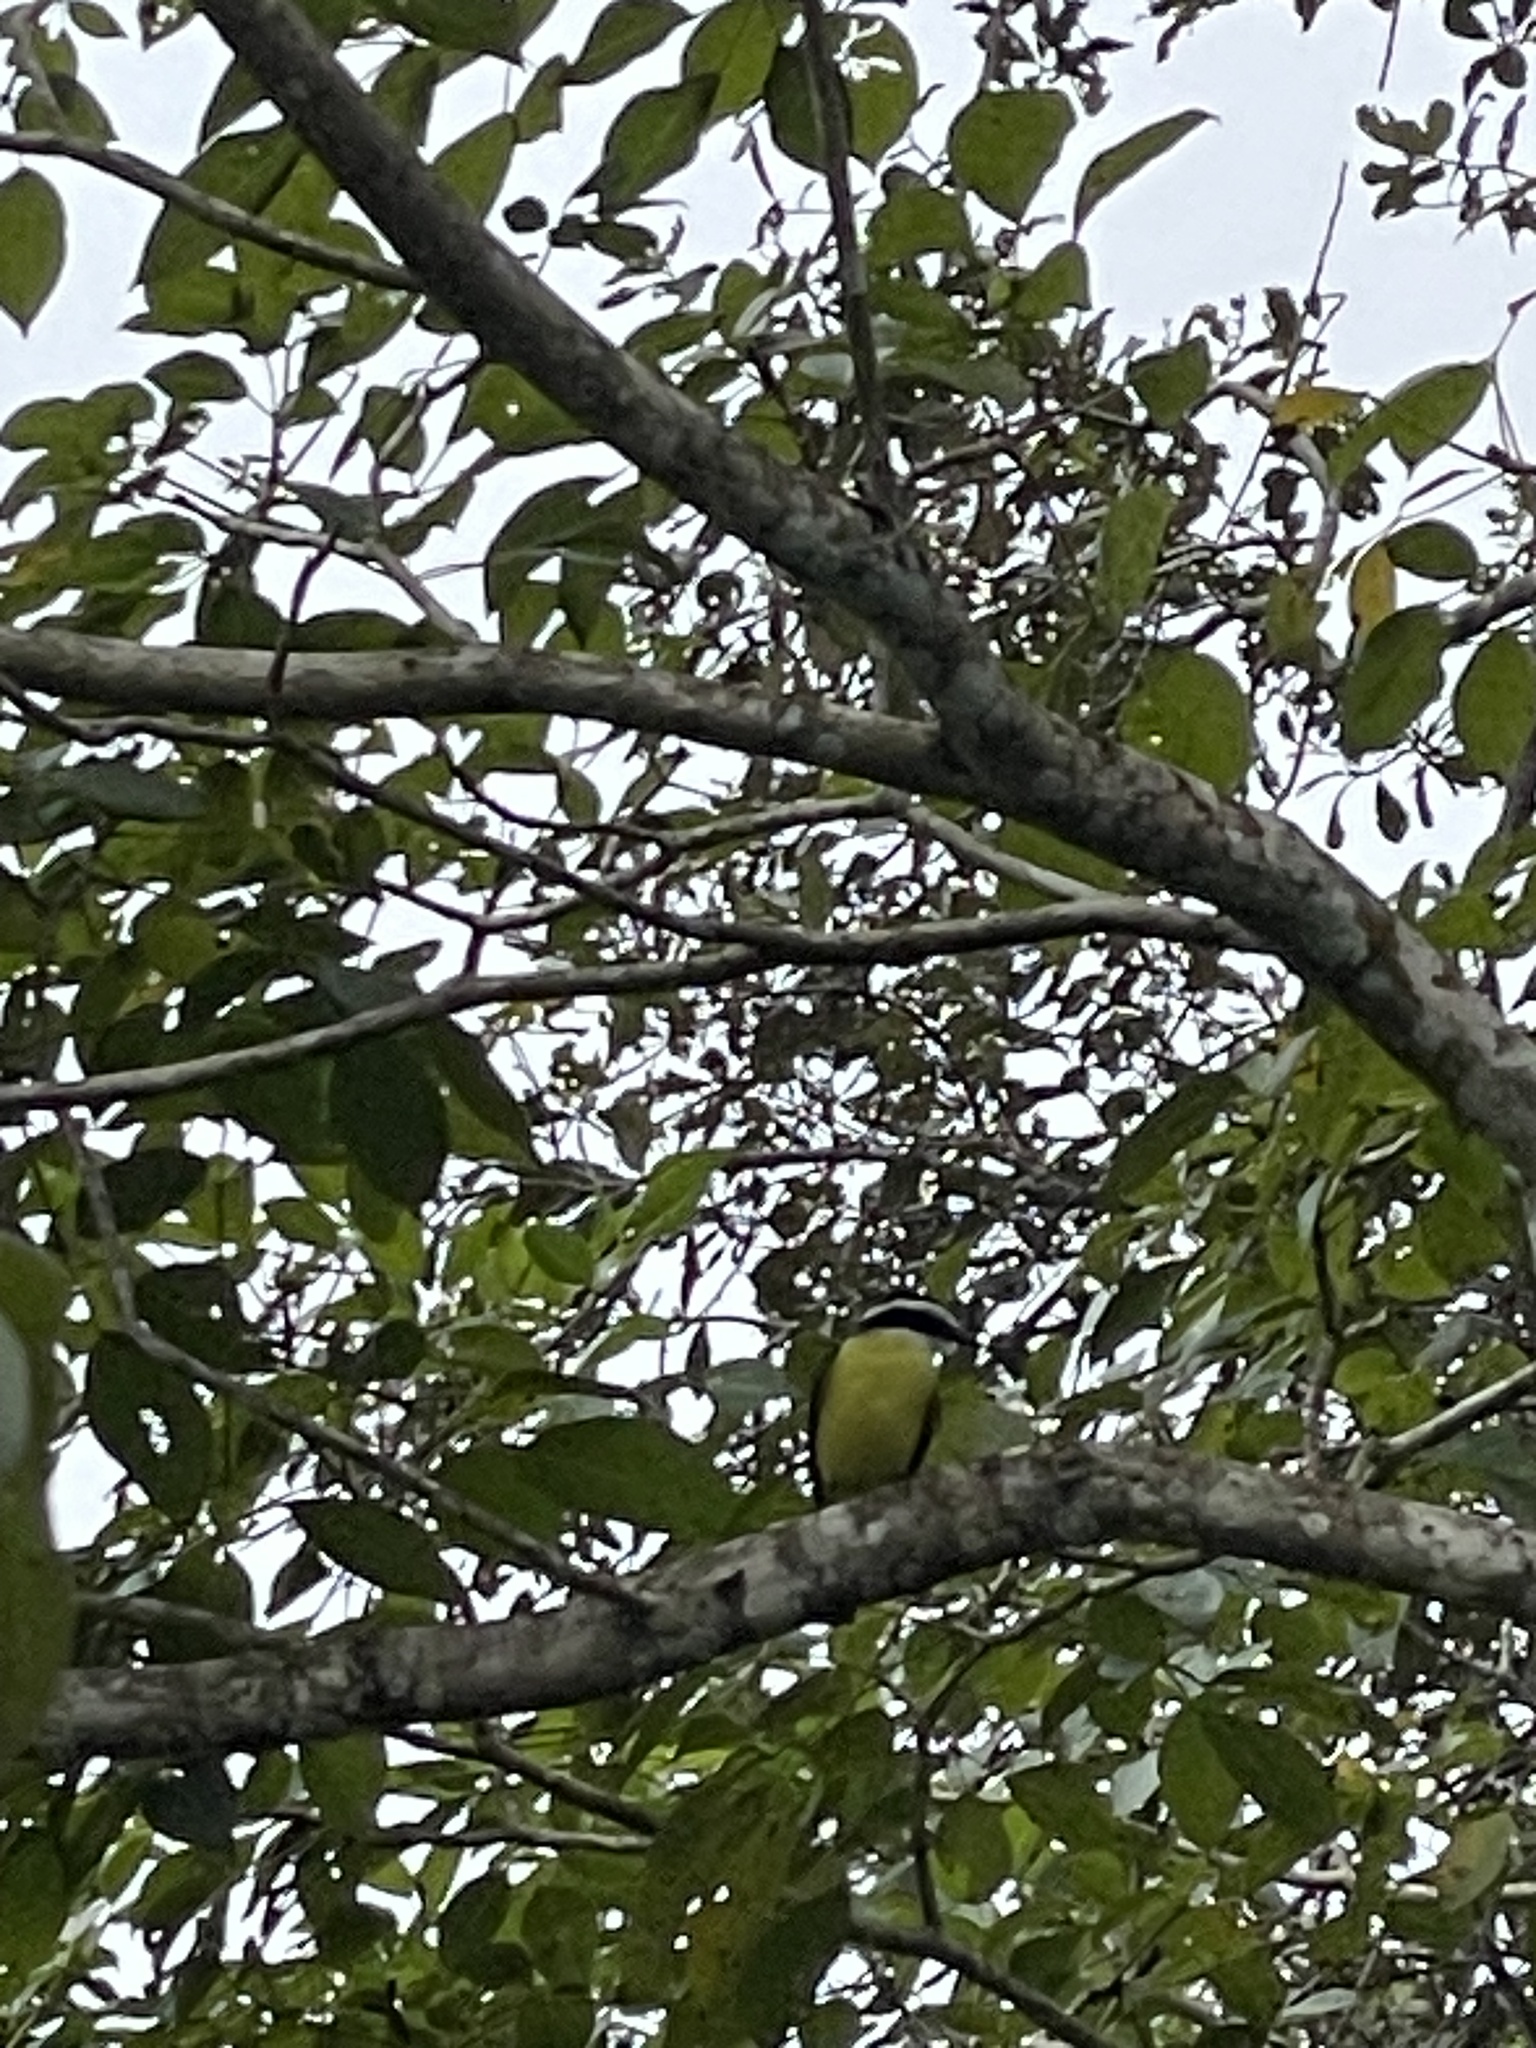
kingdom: Animalia
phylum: Chordata
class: Aves
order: Passeriformes
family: Tyrannidae
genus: Pitangus
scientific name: Pitangus sulphuratus
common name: Great kiskadee
